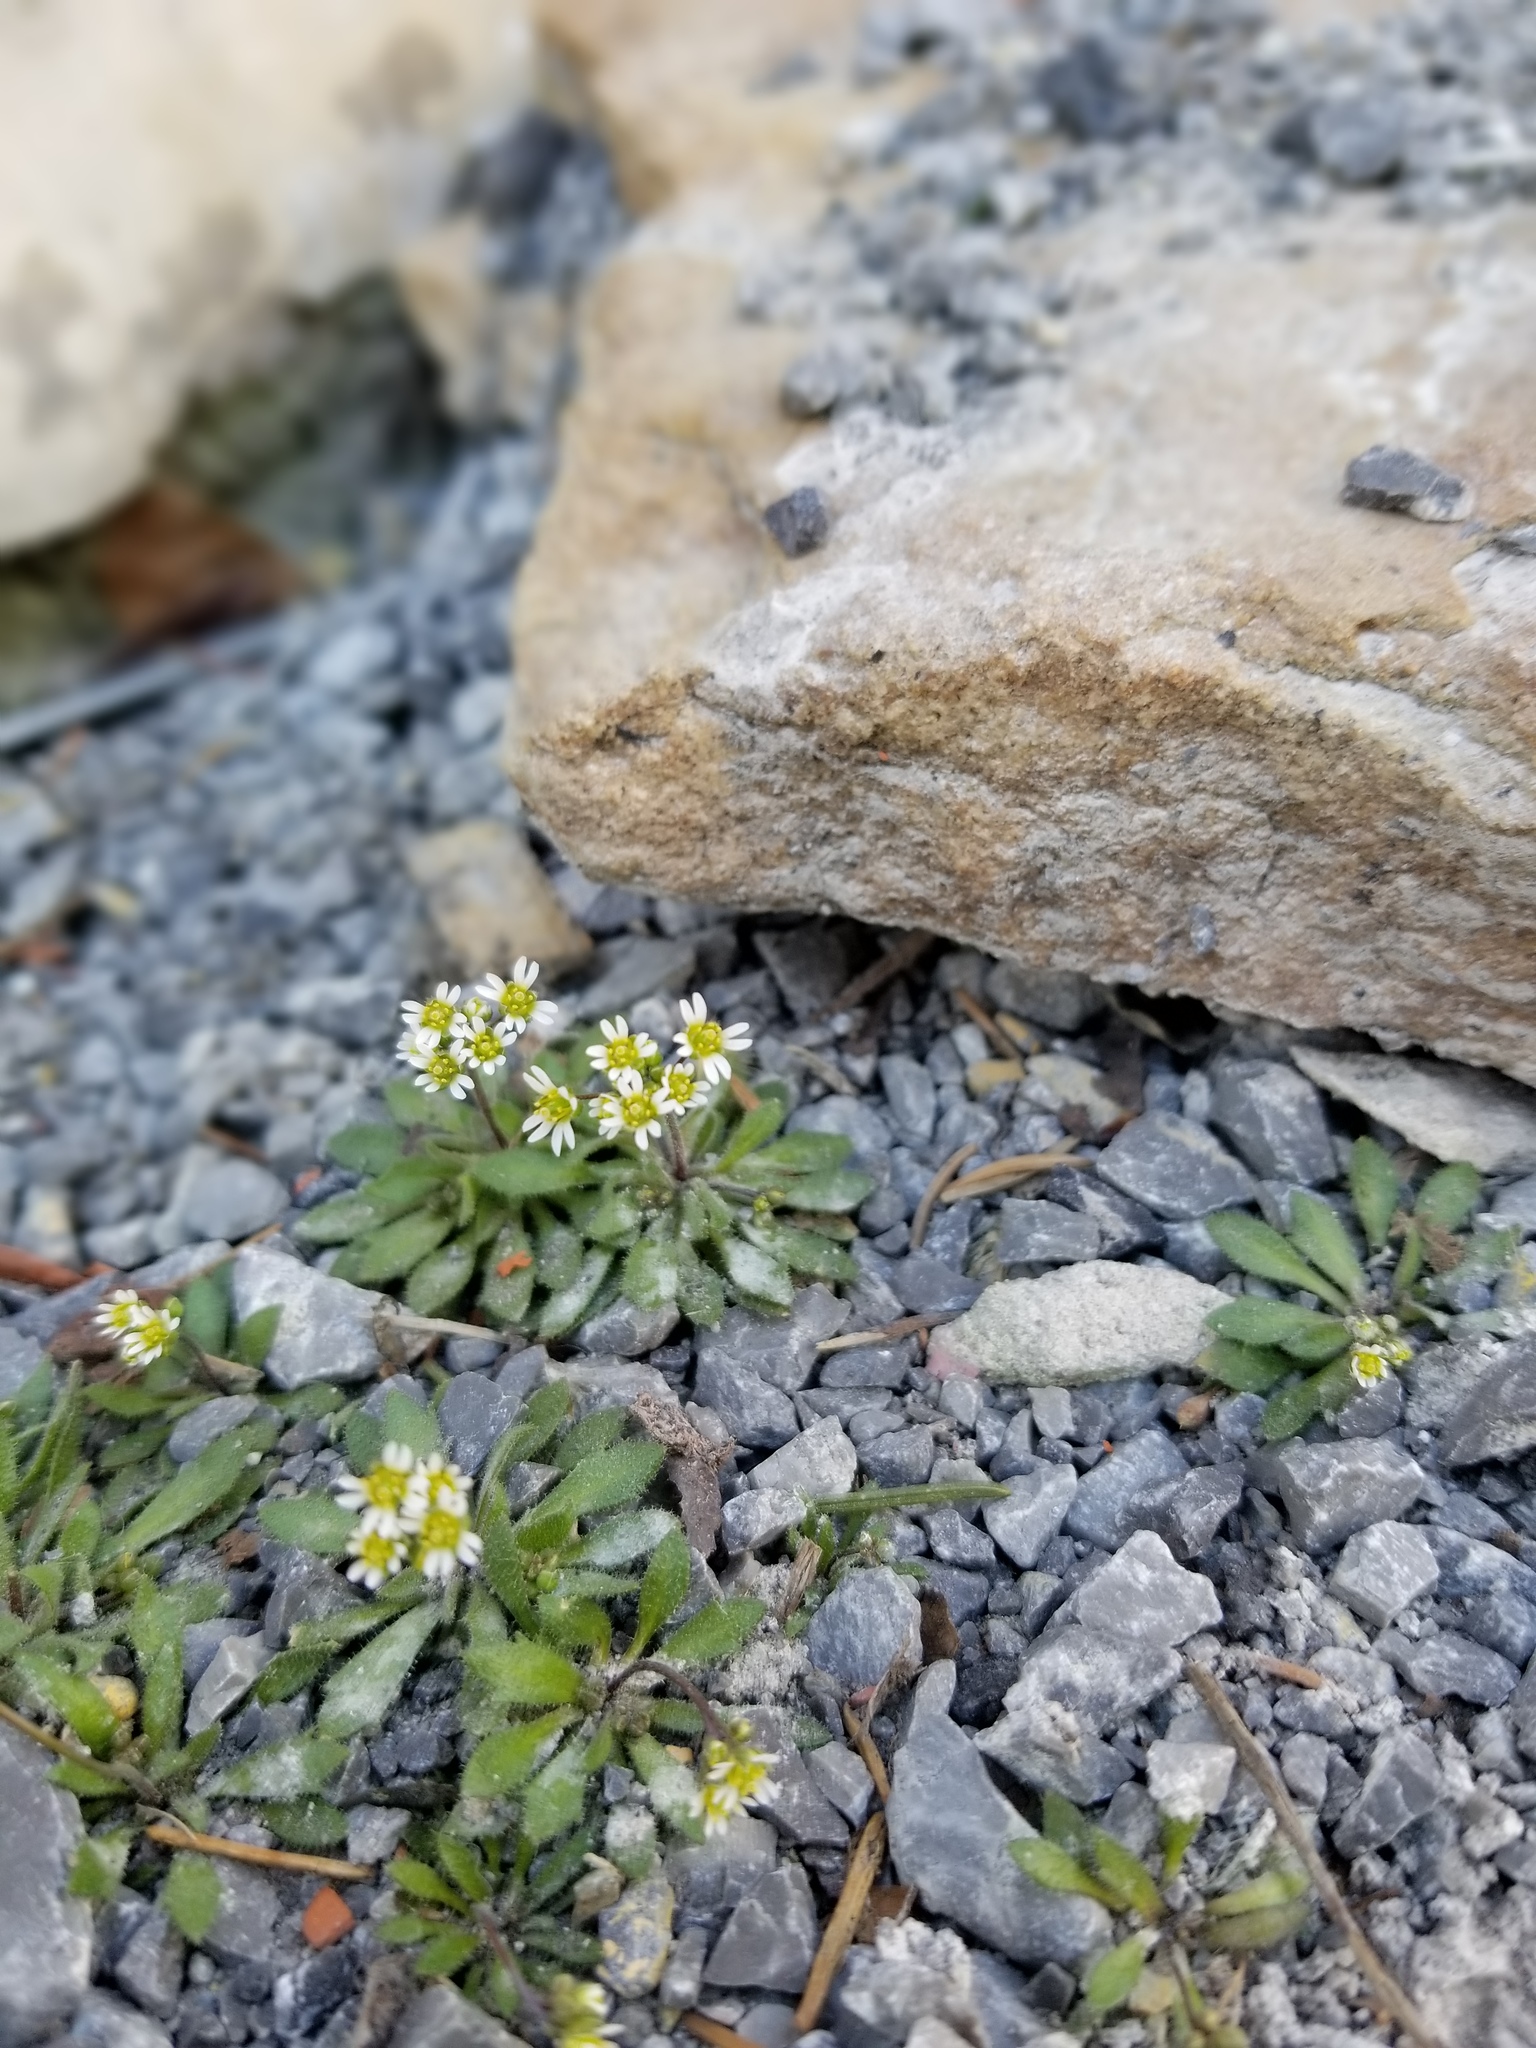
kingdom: Plantae
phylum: Tracheophyta
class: Magnoliopsida
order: Brassicales
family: Brassicaceae
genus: Draba
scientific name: Draba verna
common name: Spring draba
